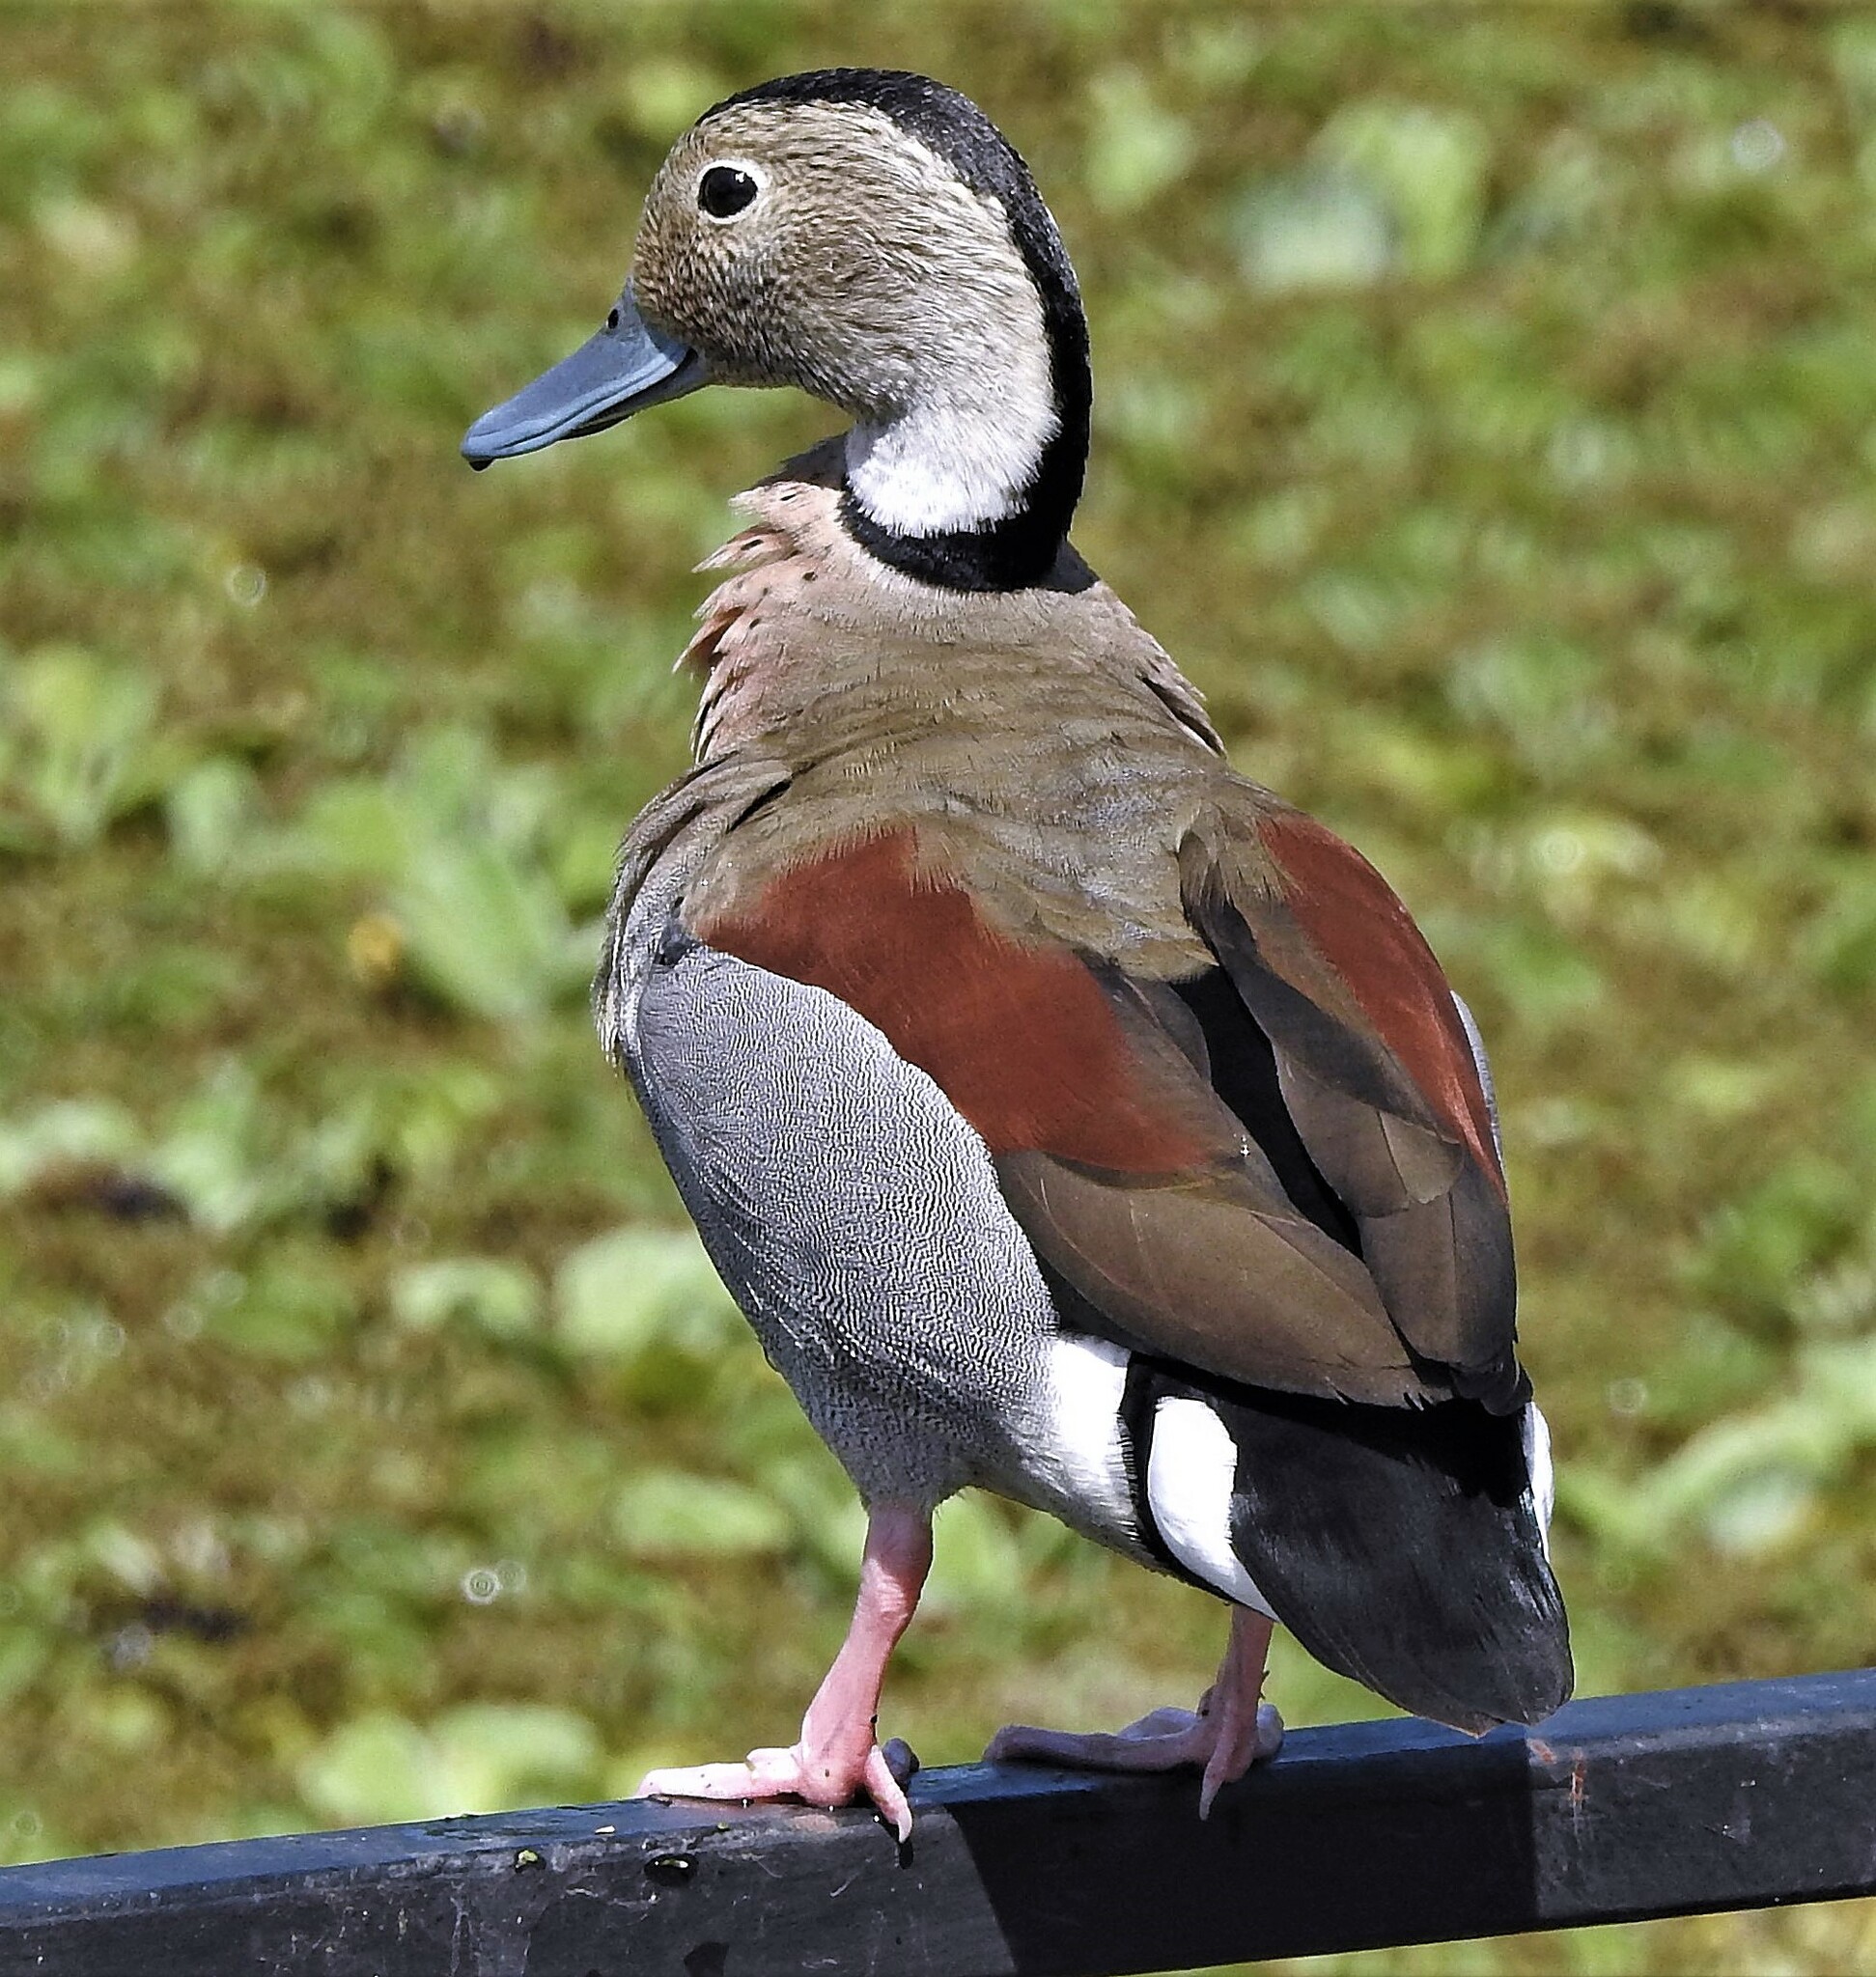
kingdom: Animalia
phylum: Chordata
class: Aves
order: Anseriformes
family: Anatidae
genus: Callonetta
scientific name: Callonetta leucophrys
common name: Ringed teal
